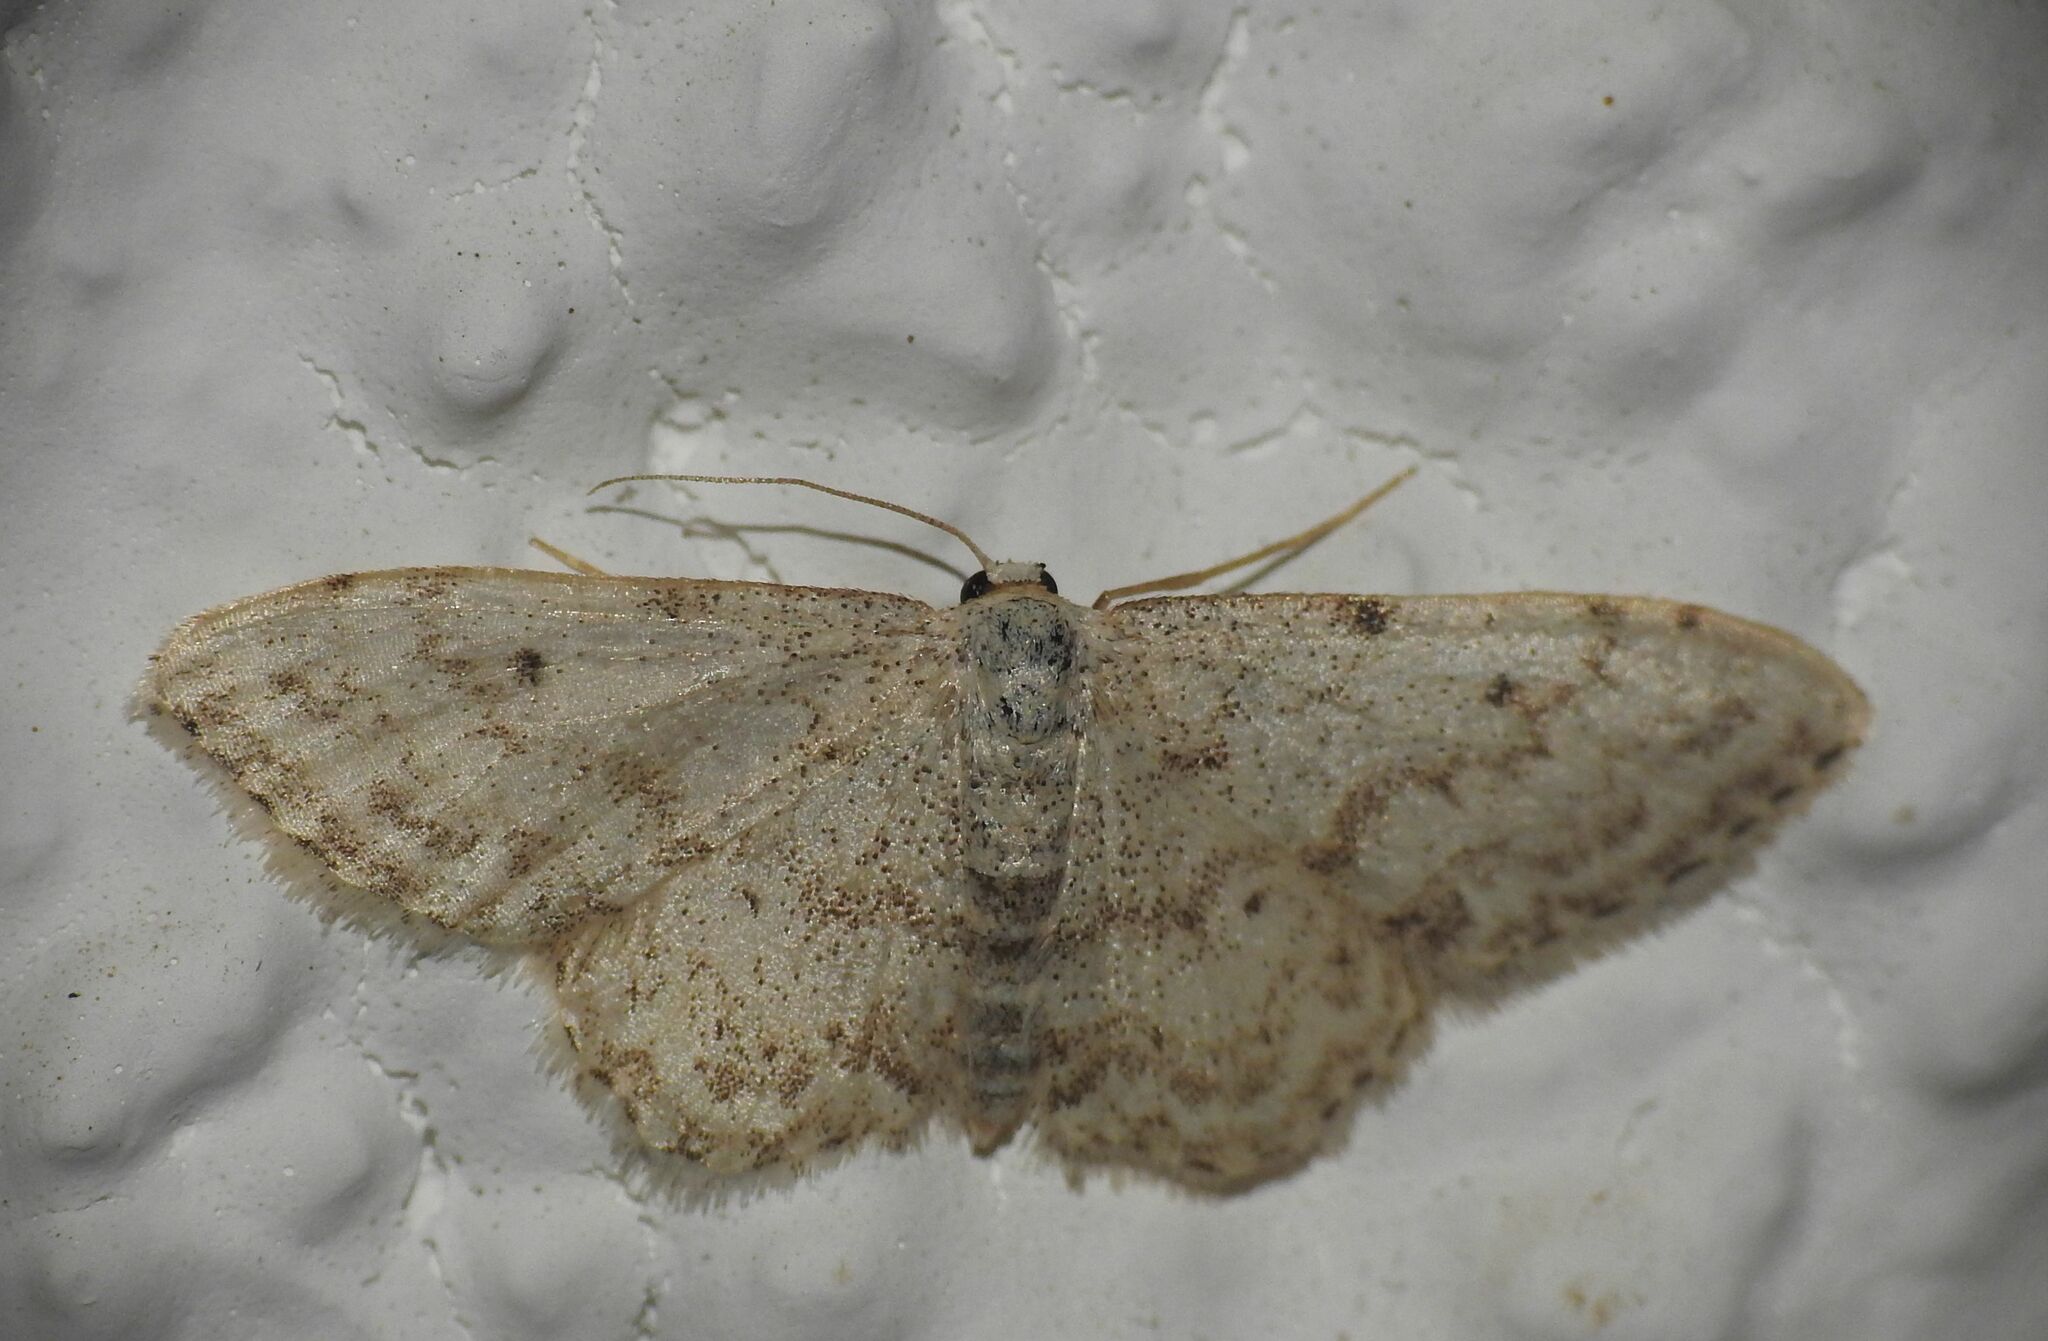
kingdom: Animalia
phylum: Arthropoda
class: Insecta
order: Lepidoptera
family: Geometridae
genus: Idaea
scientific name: Idaea camparia
